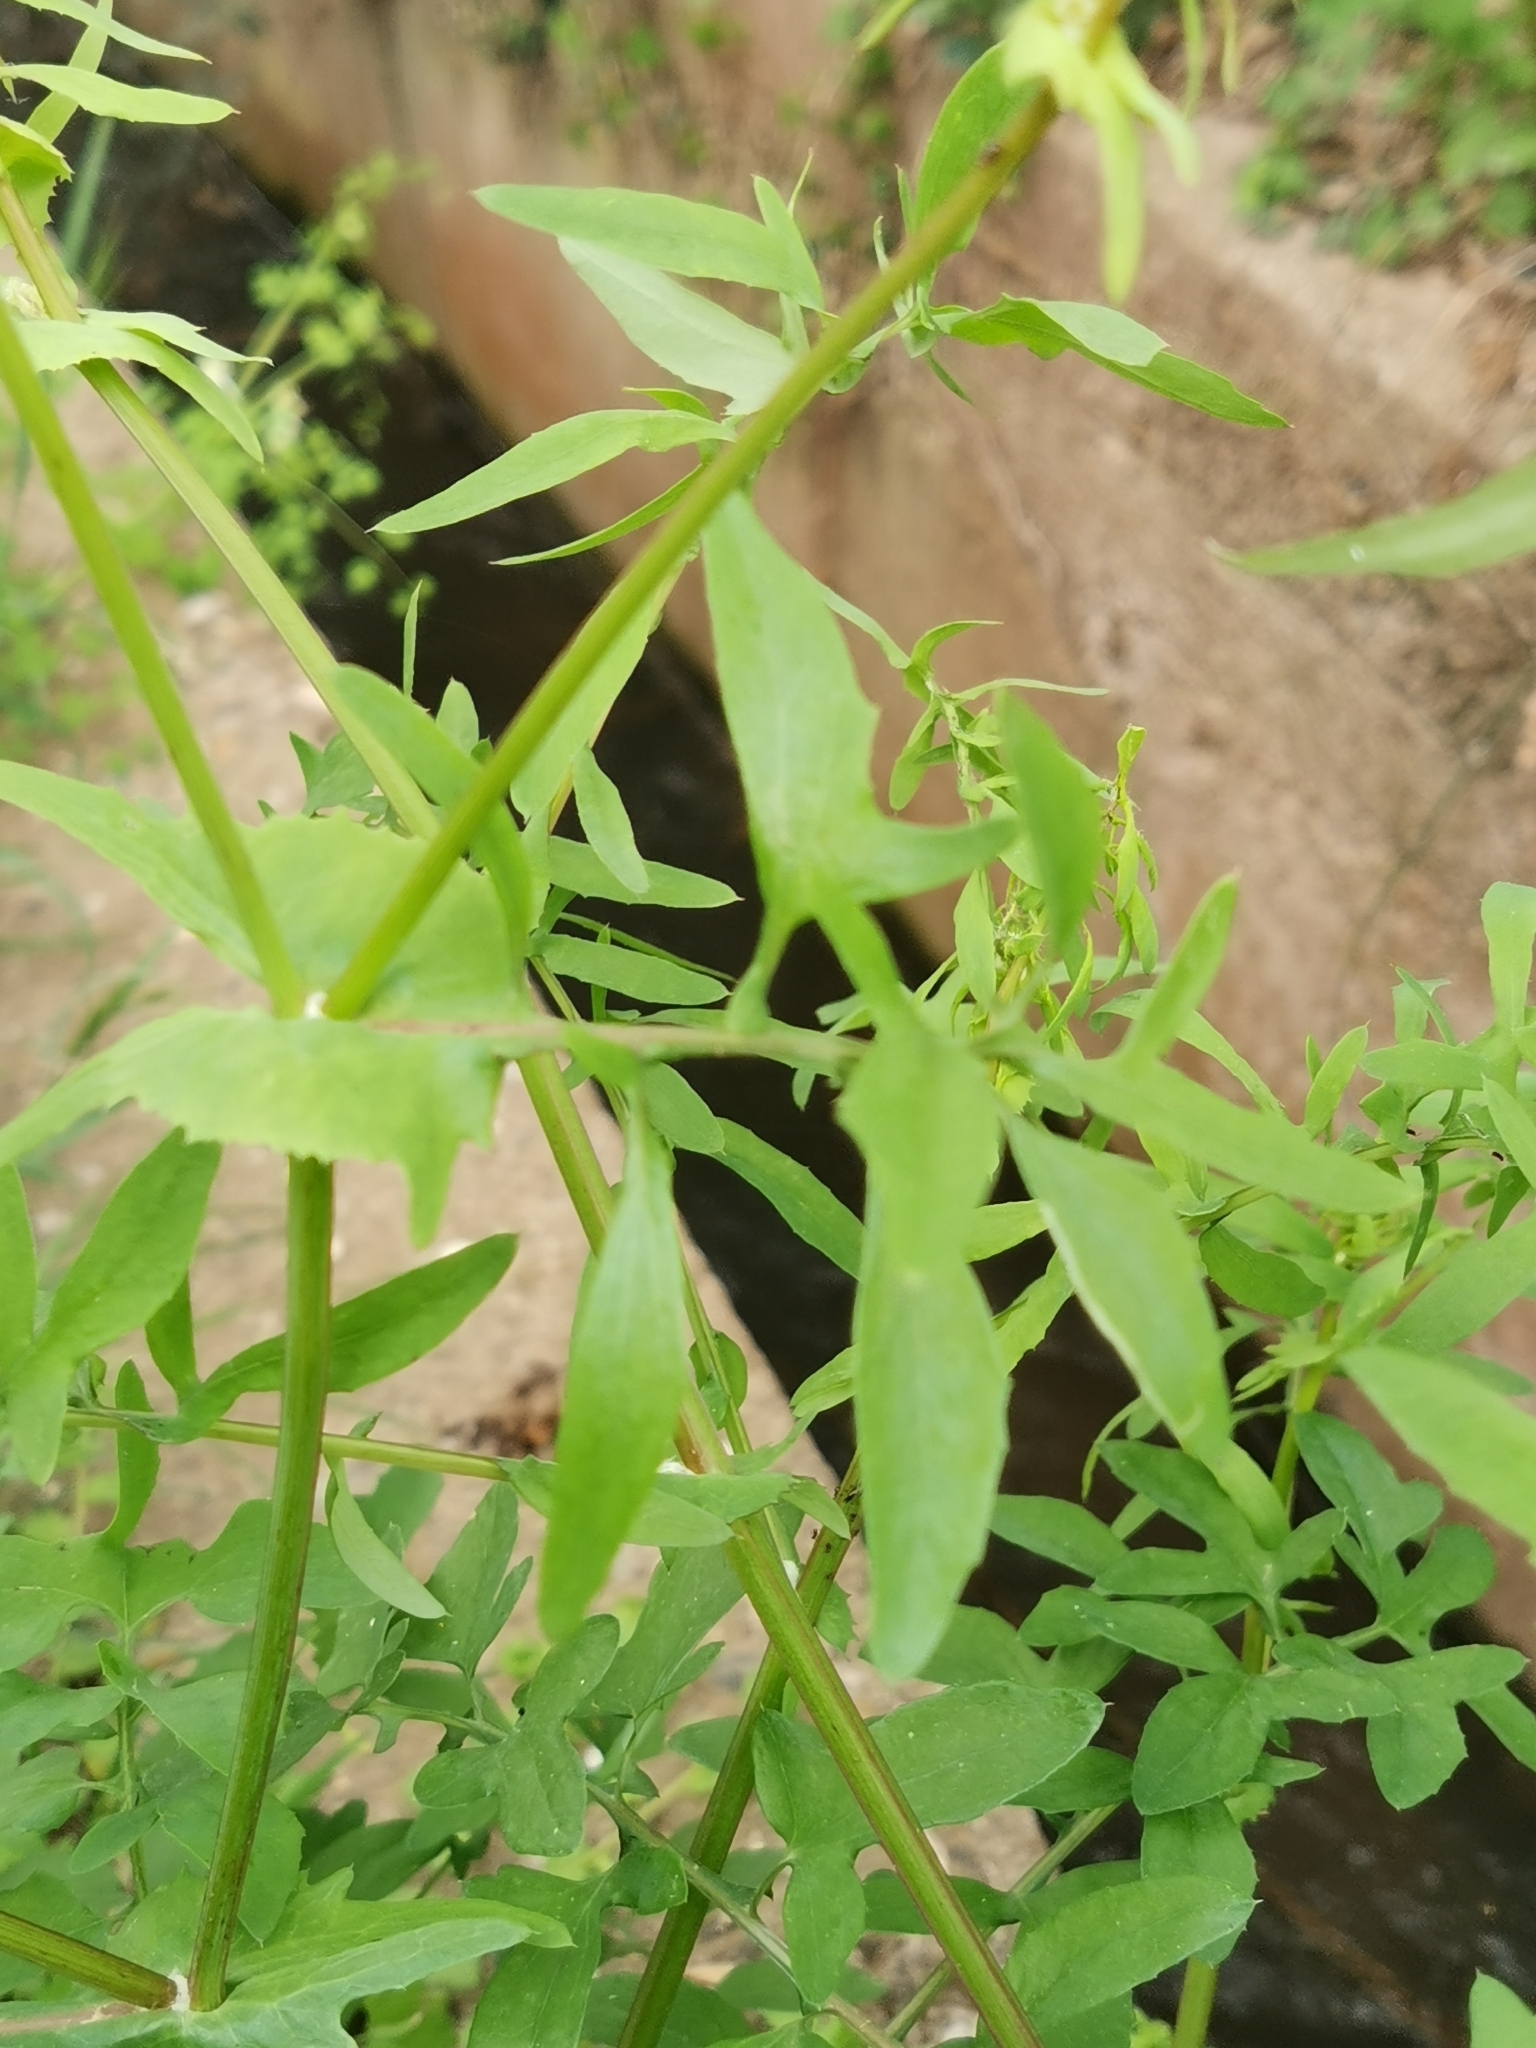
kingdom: Plantae
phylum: Tracheophyta
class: Magnoliopsida
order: Asterales
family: Asteraceae
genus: Sonchus
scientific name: Sonchus tenerrimus
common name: Clammy sowthistle
